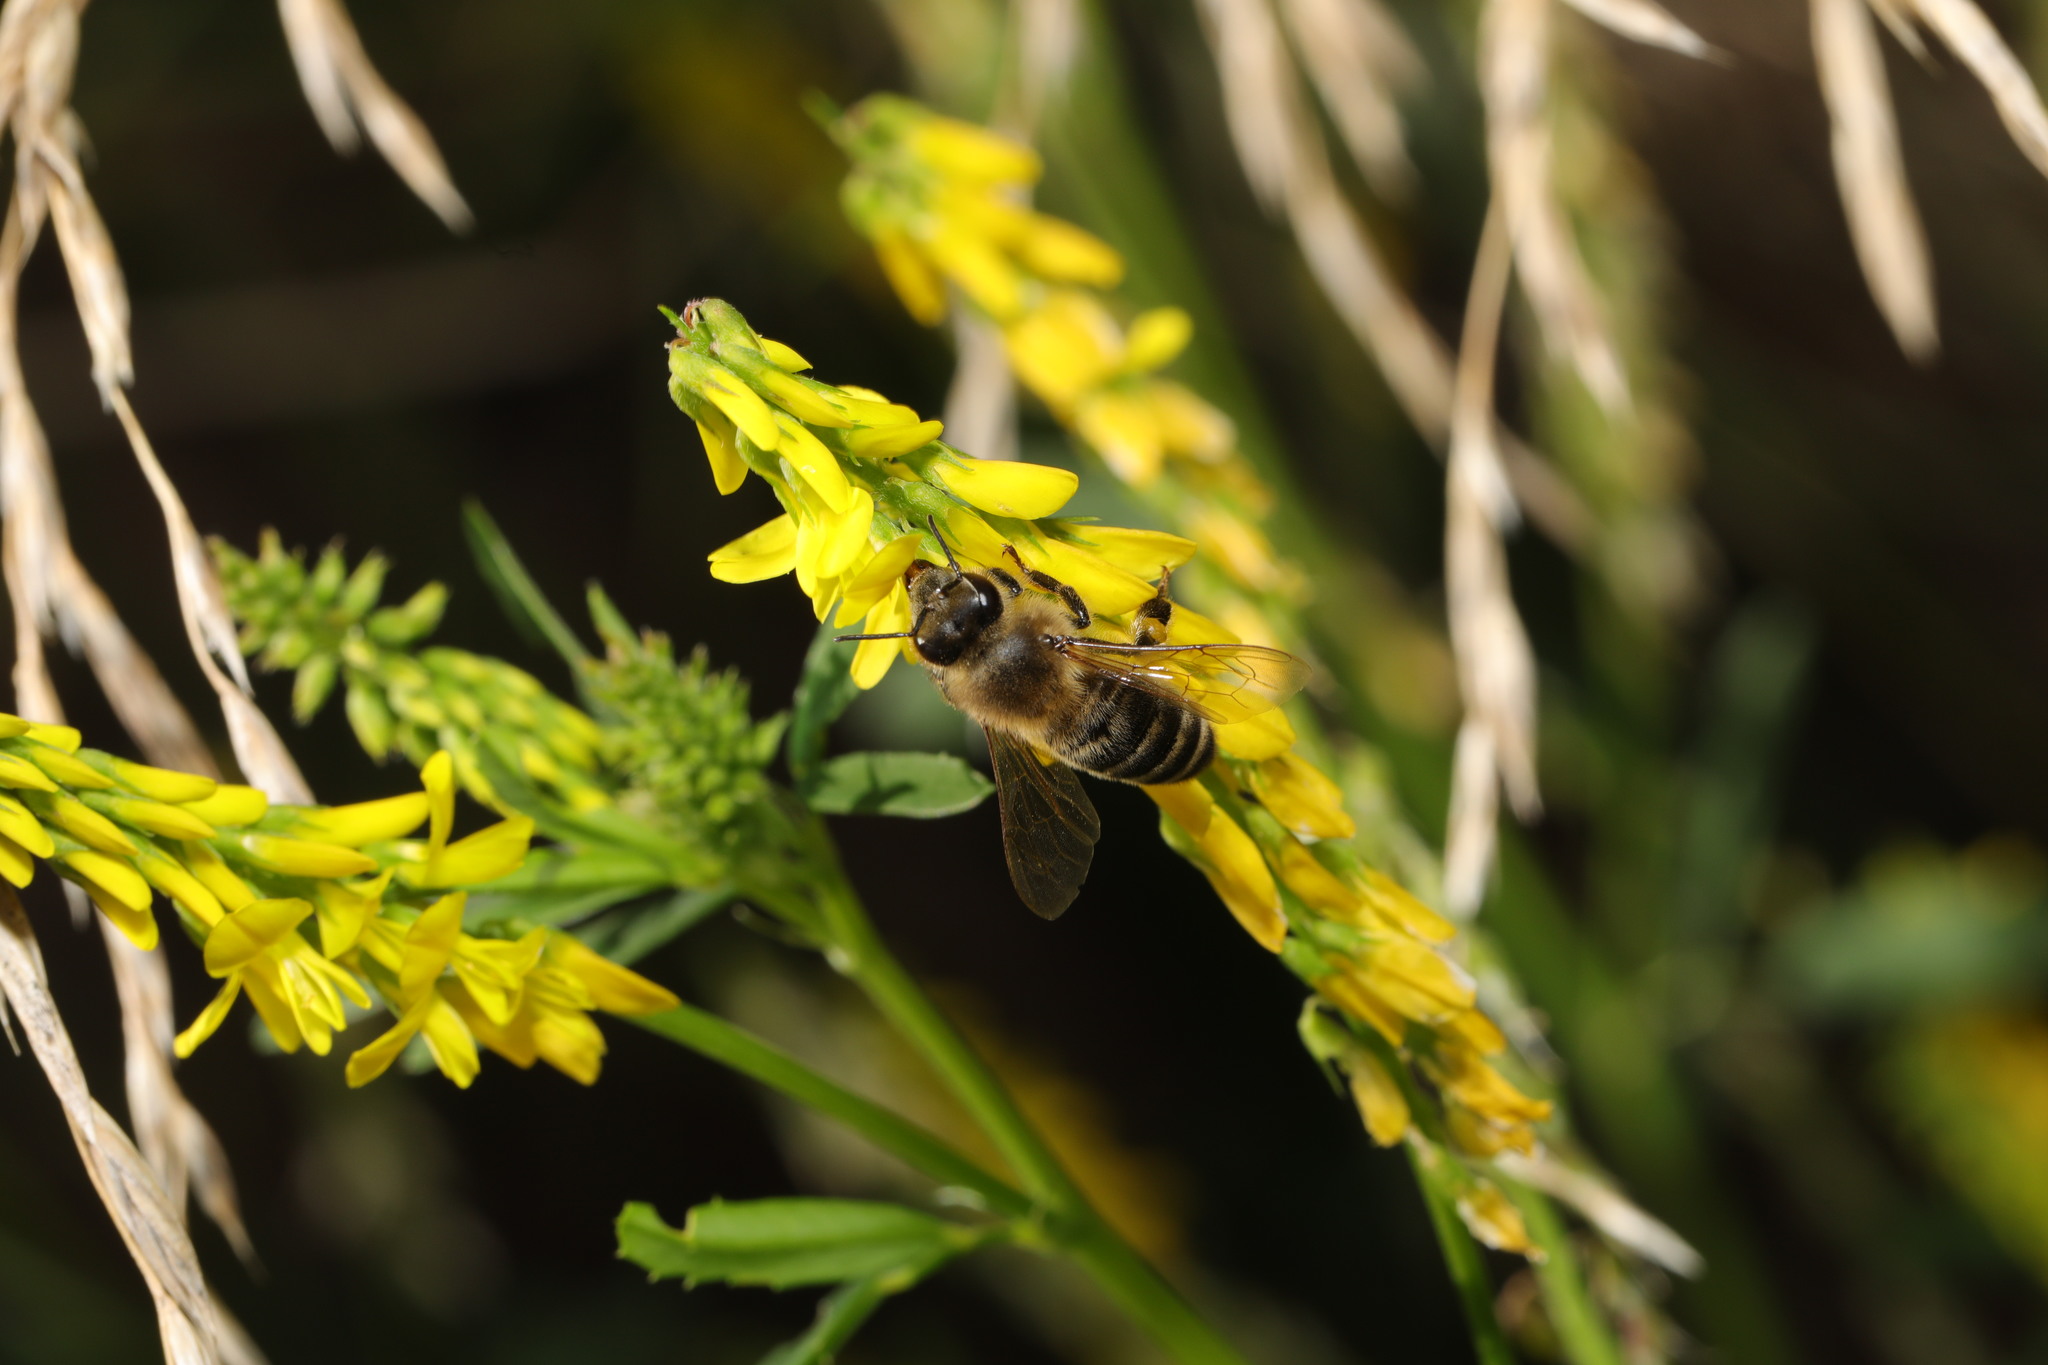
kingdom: Animalia
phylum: Arthropoda
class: Insecta
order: Hymenoptera
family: Apidae
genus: Apis
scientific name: Apis mellifera
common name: Honey bee
